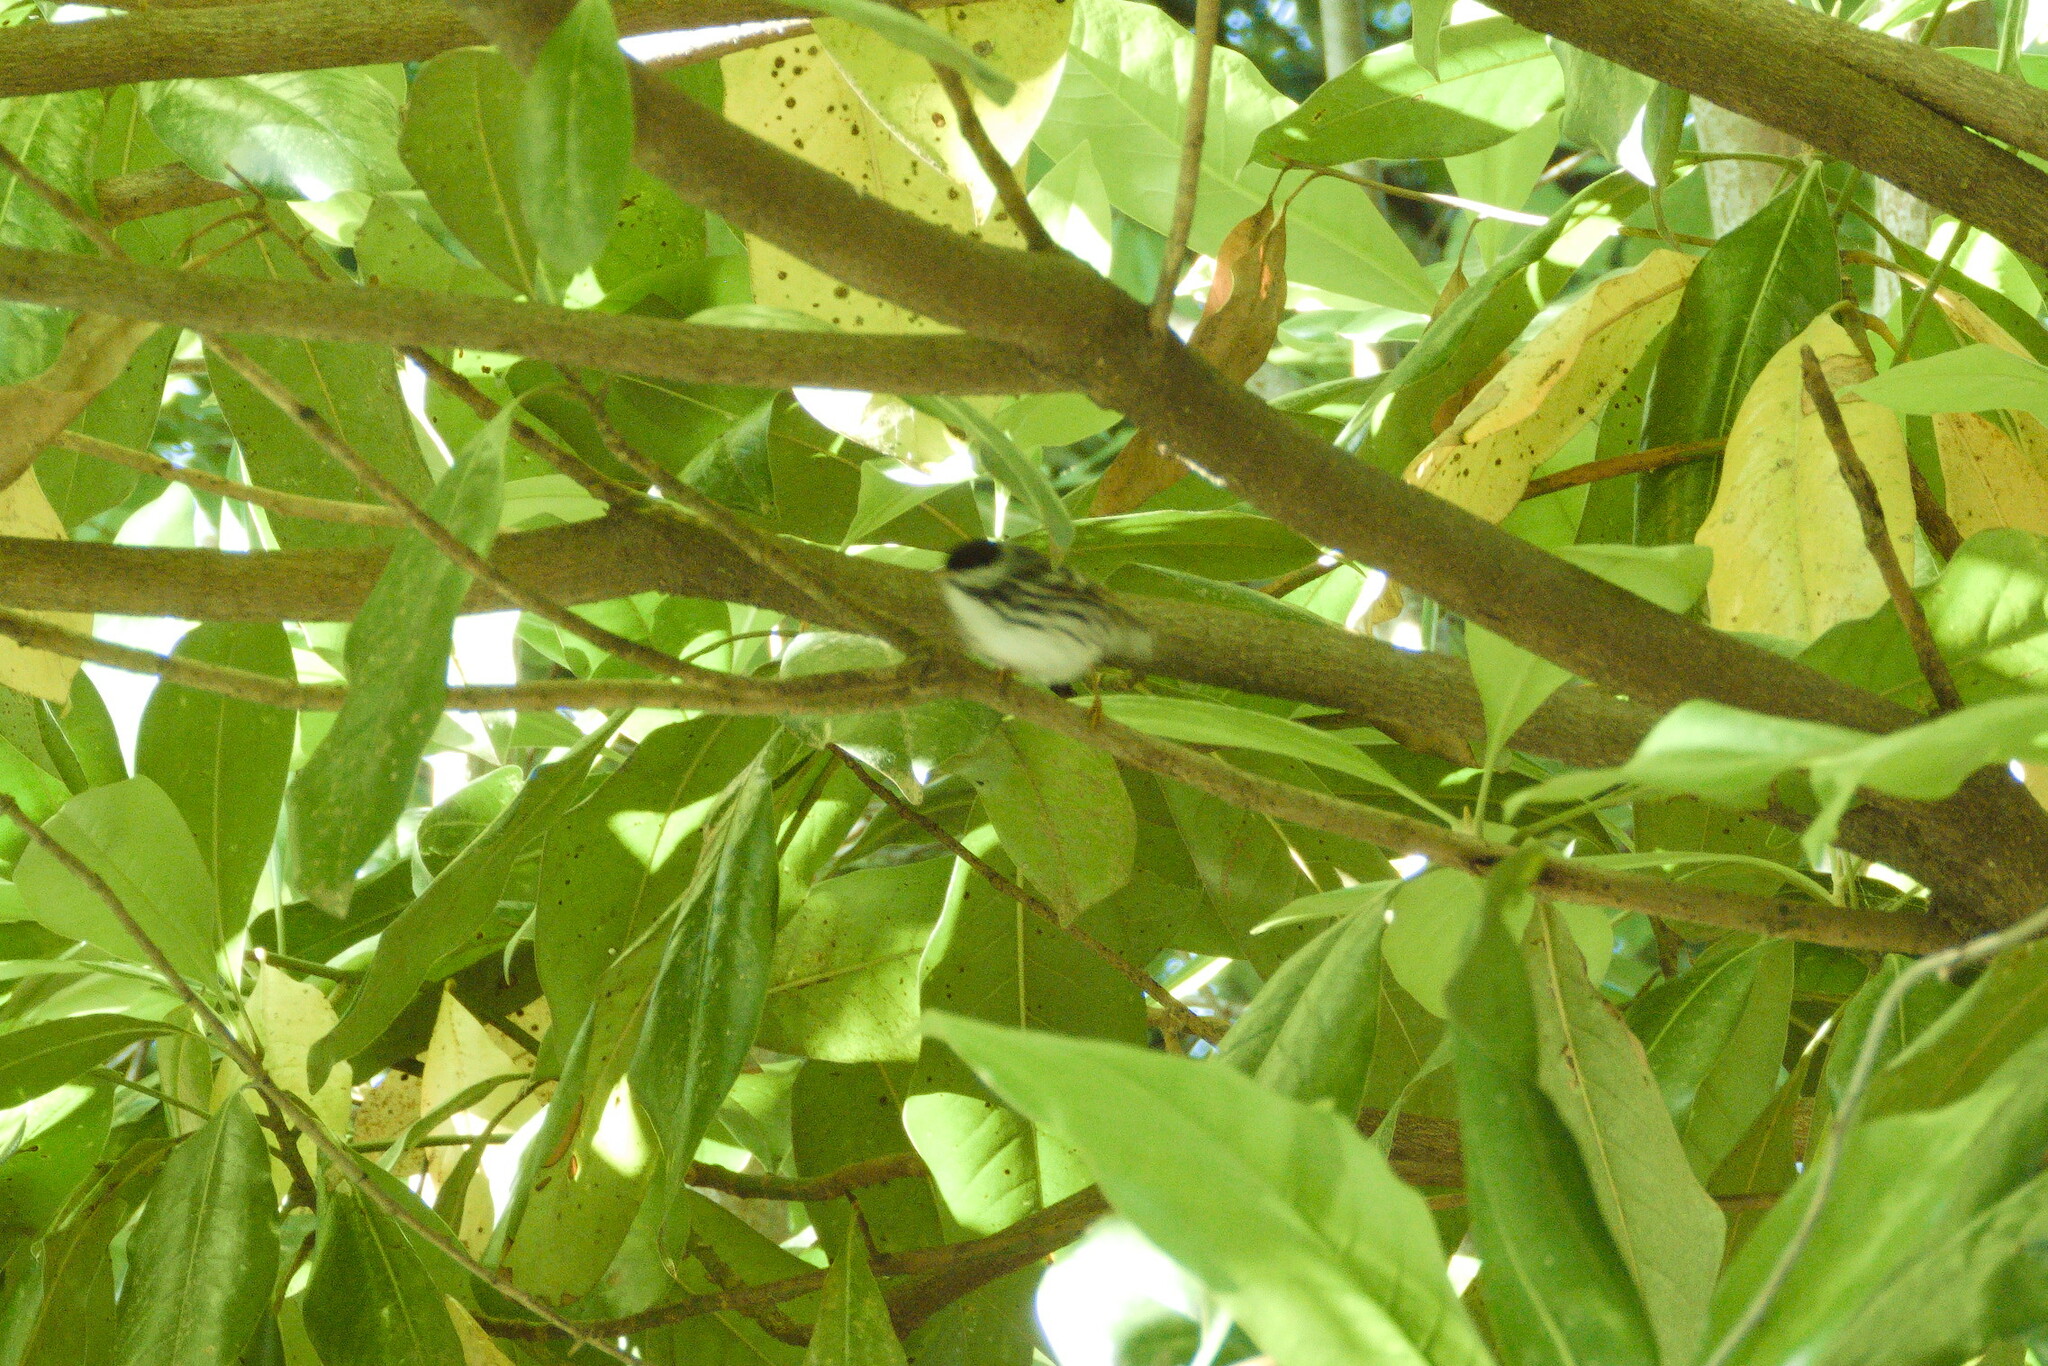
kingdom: Animalia
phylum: Chordata
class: Aves
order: Passeriformes
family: Parulidae
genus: Setophaga
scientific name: Setophaga striata
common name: Blackpoll warbler
